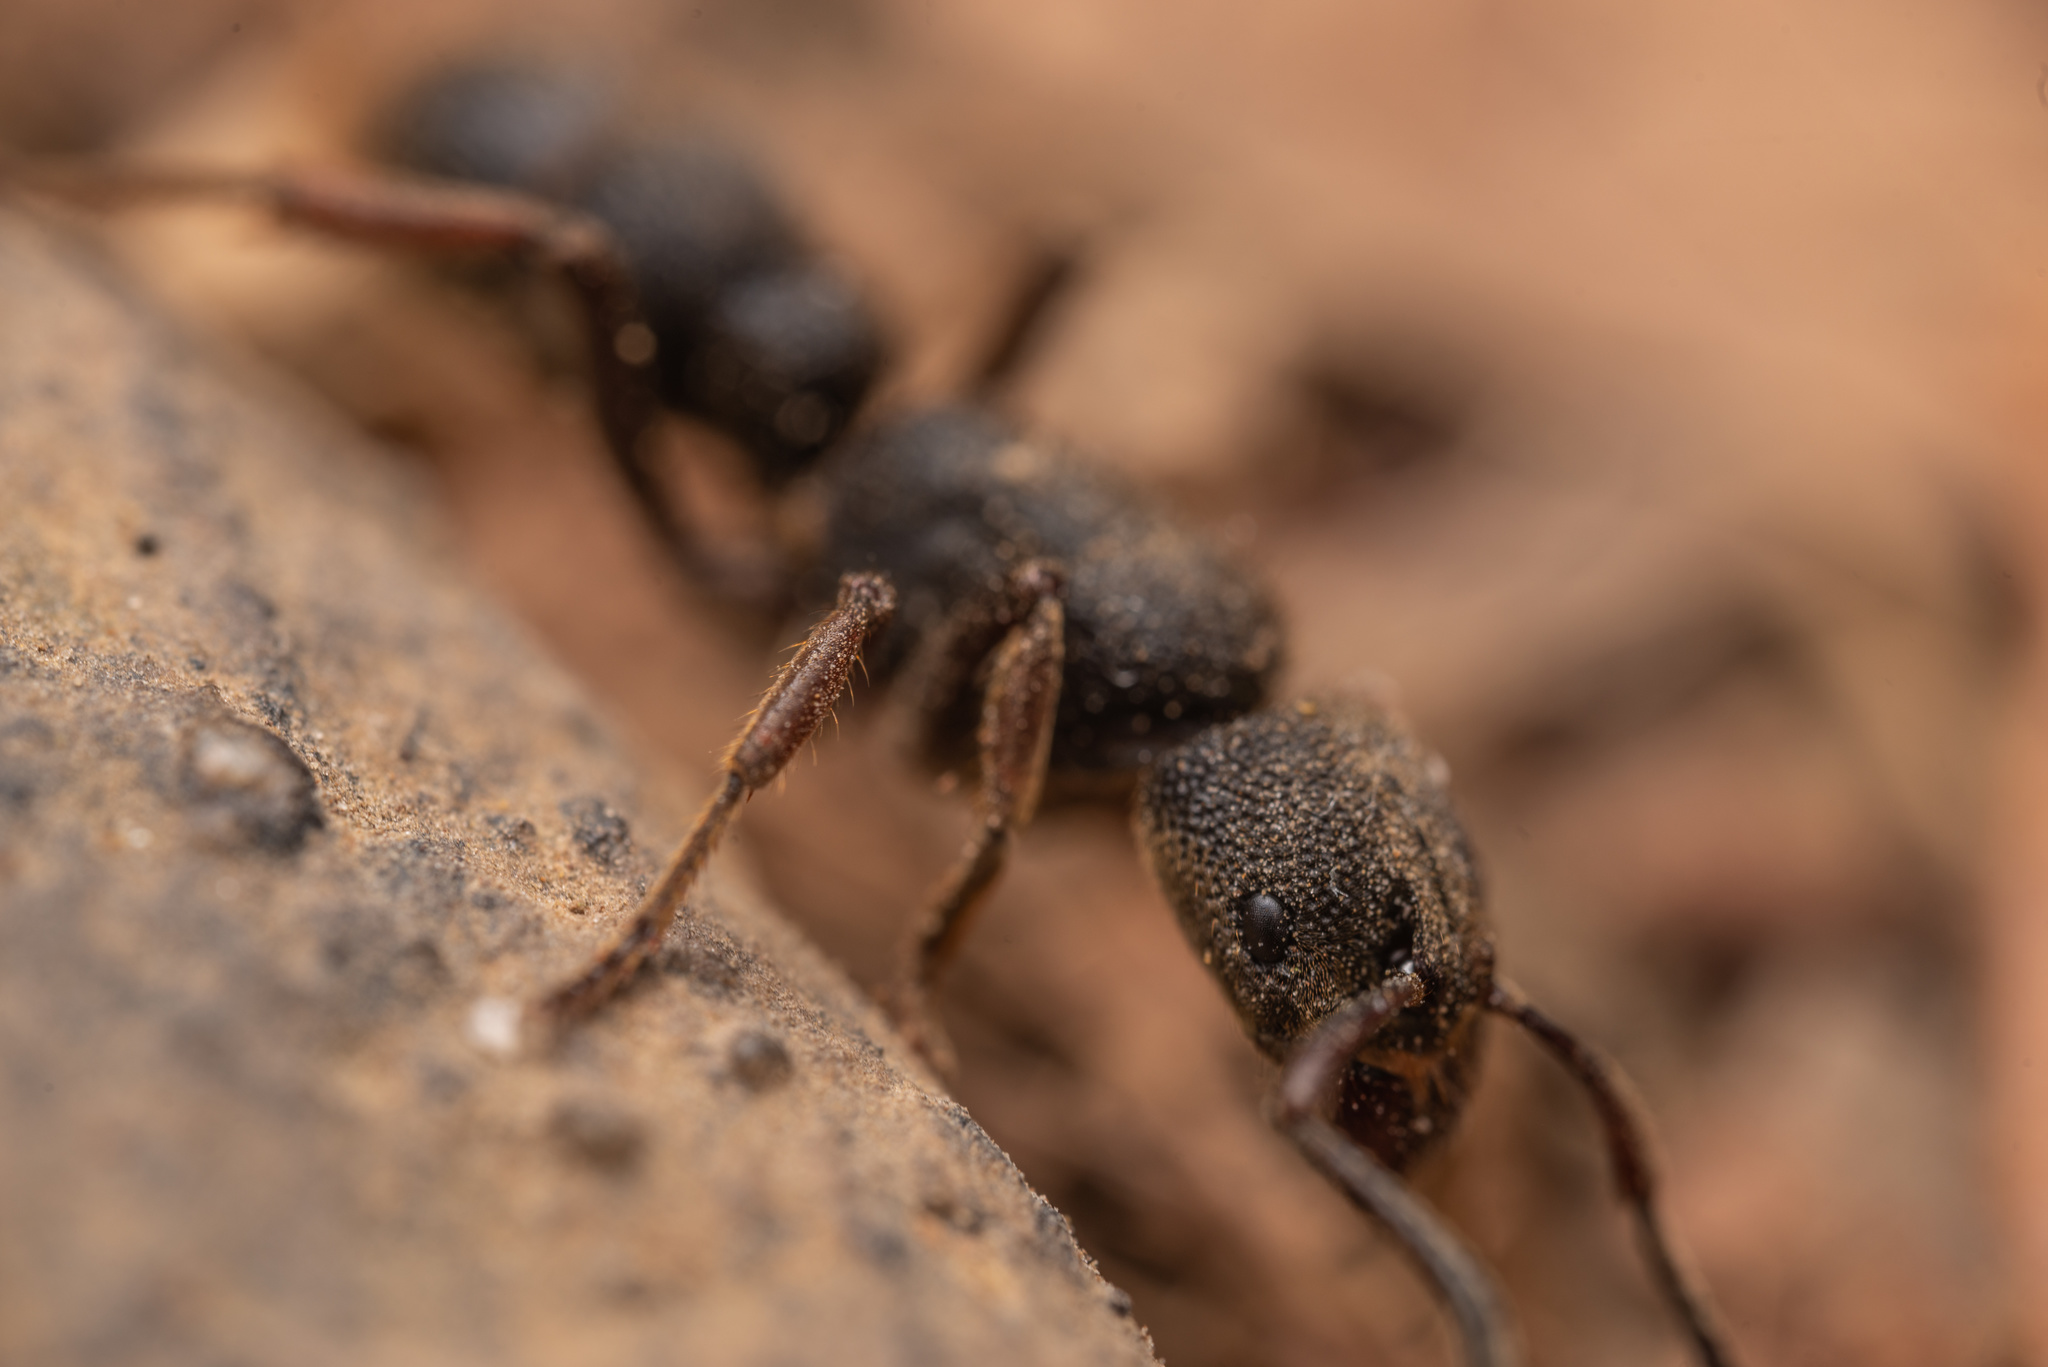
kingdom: Animalia
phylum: Arthropoda
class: Insecta
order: Hymenoptera
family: Formicidae
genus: Pseudoneoponera
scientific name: Pseudoneoponera rufipes
